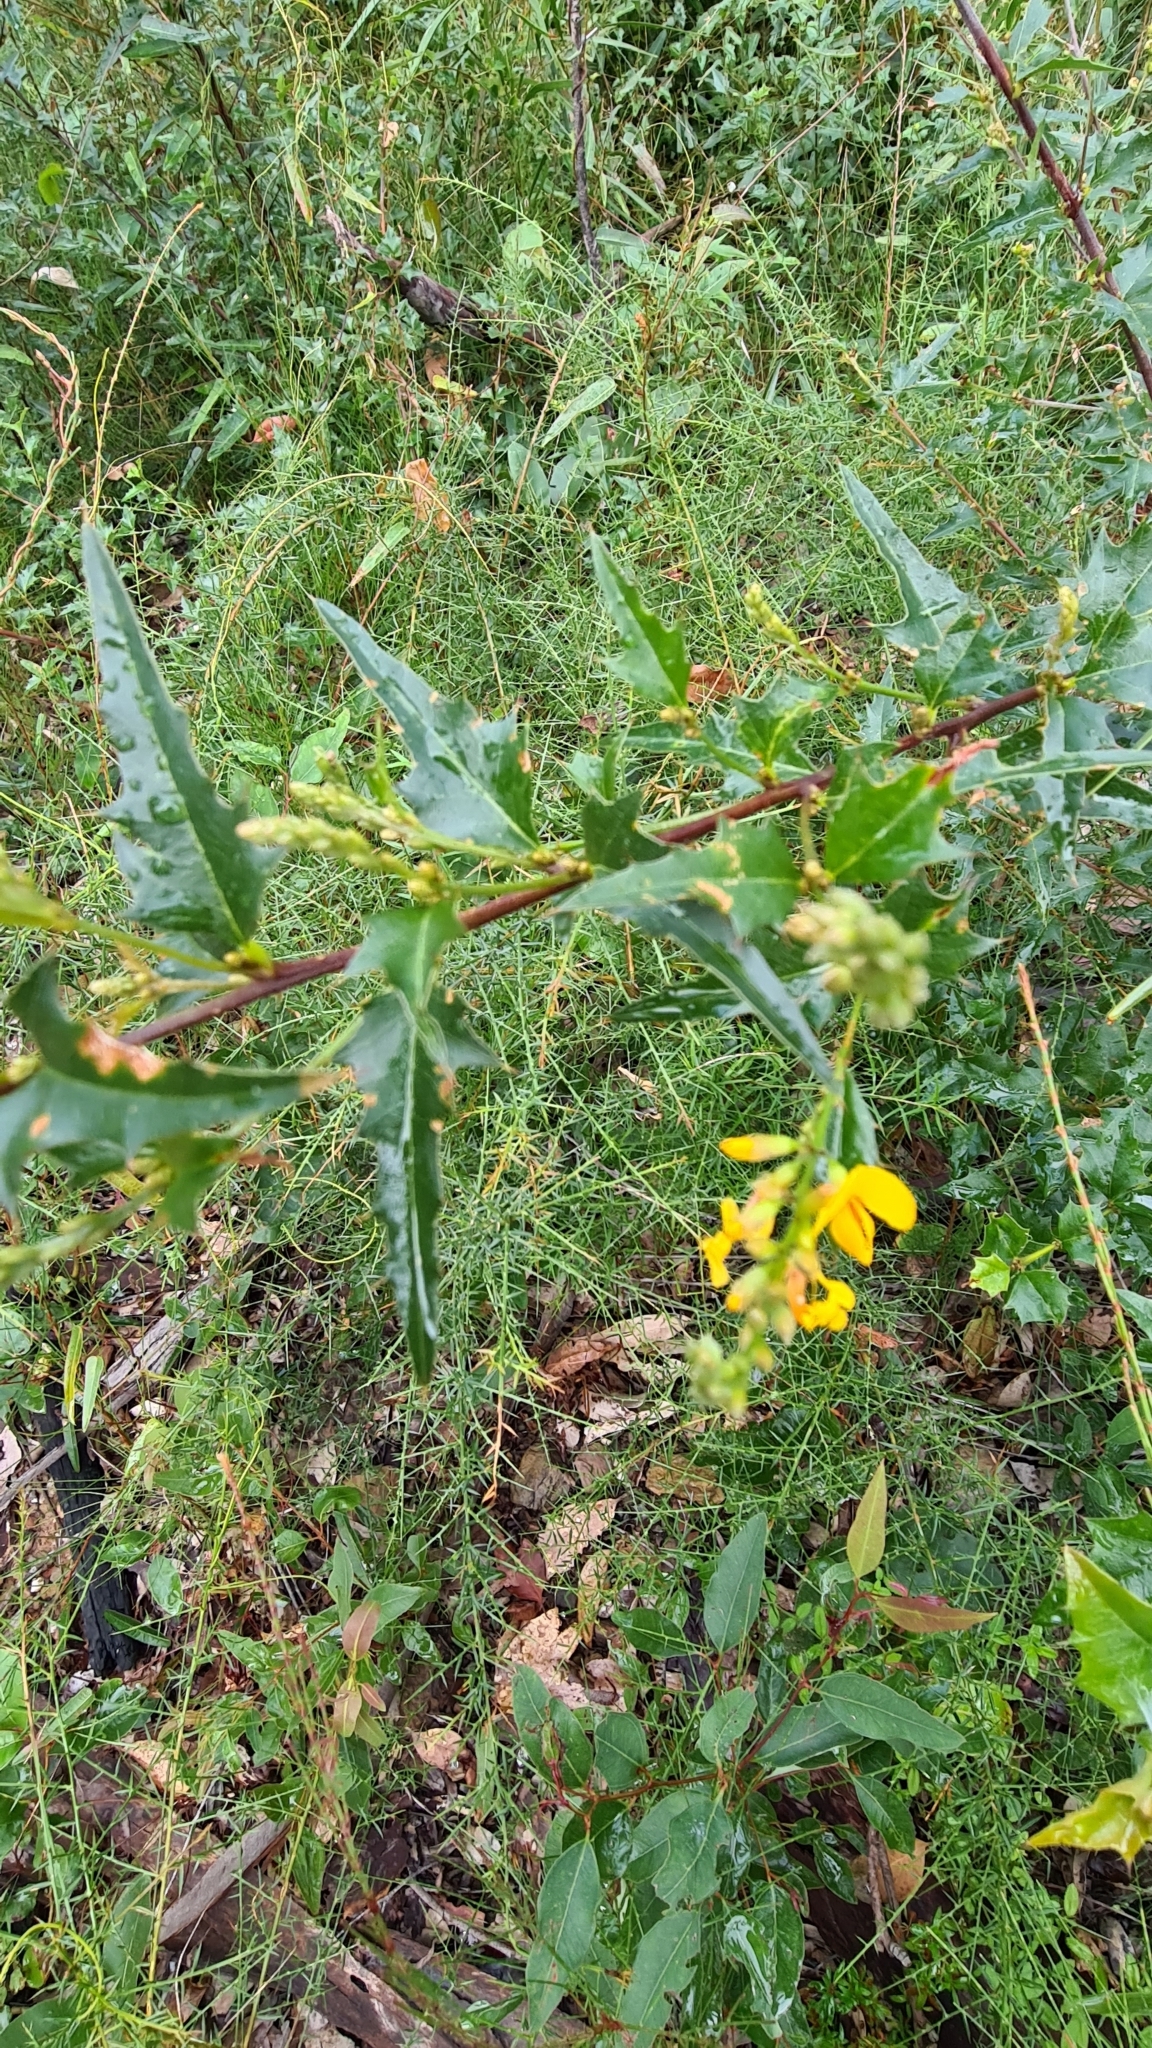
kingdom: Plantae
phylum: Tracheophyta
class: Magnoliopsida
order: Fabales
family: Fabaceae
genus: Podolobium
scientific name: Podolobium ilicifolium
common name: Native holly
